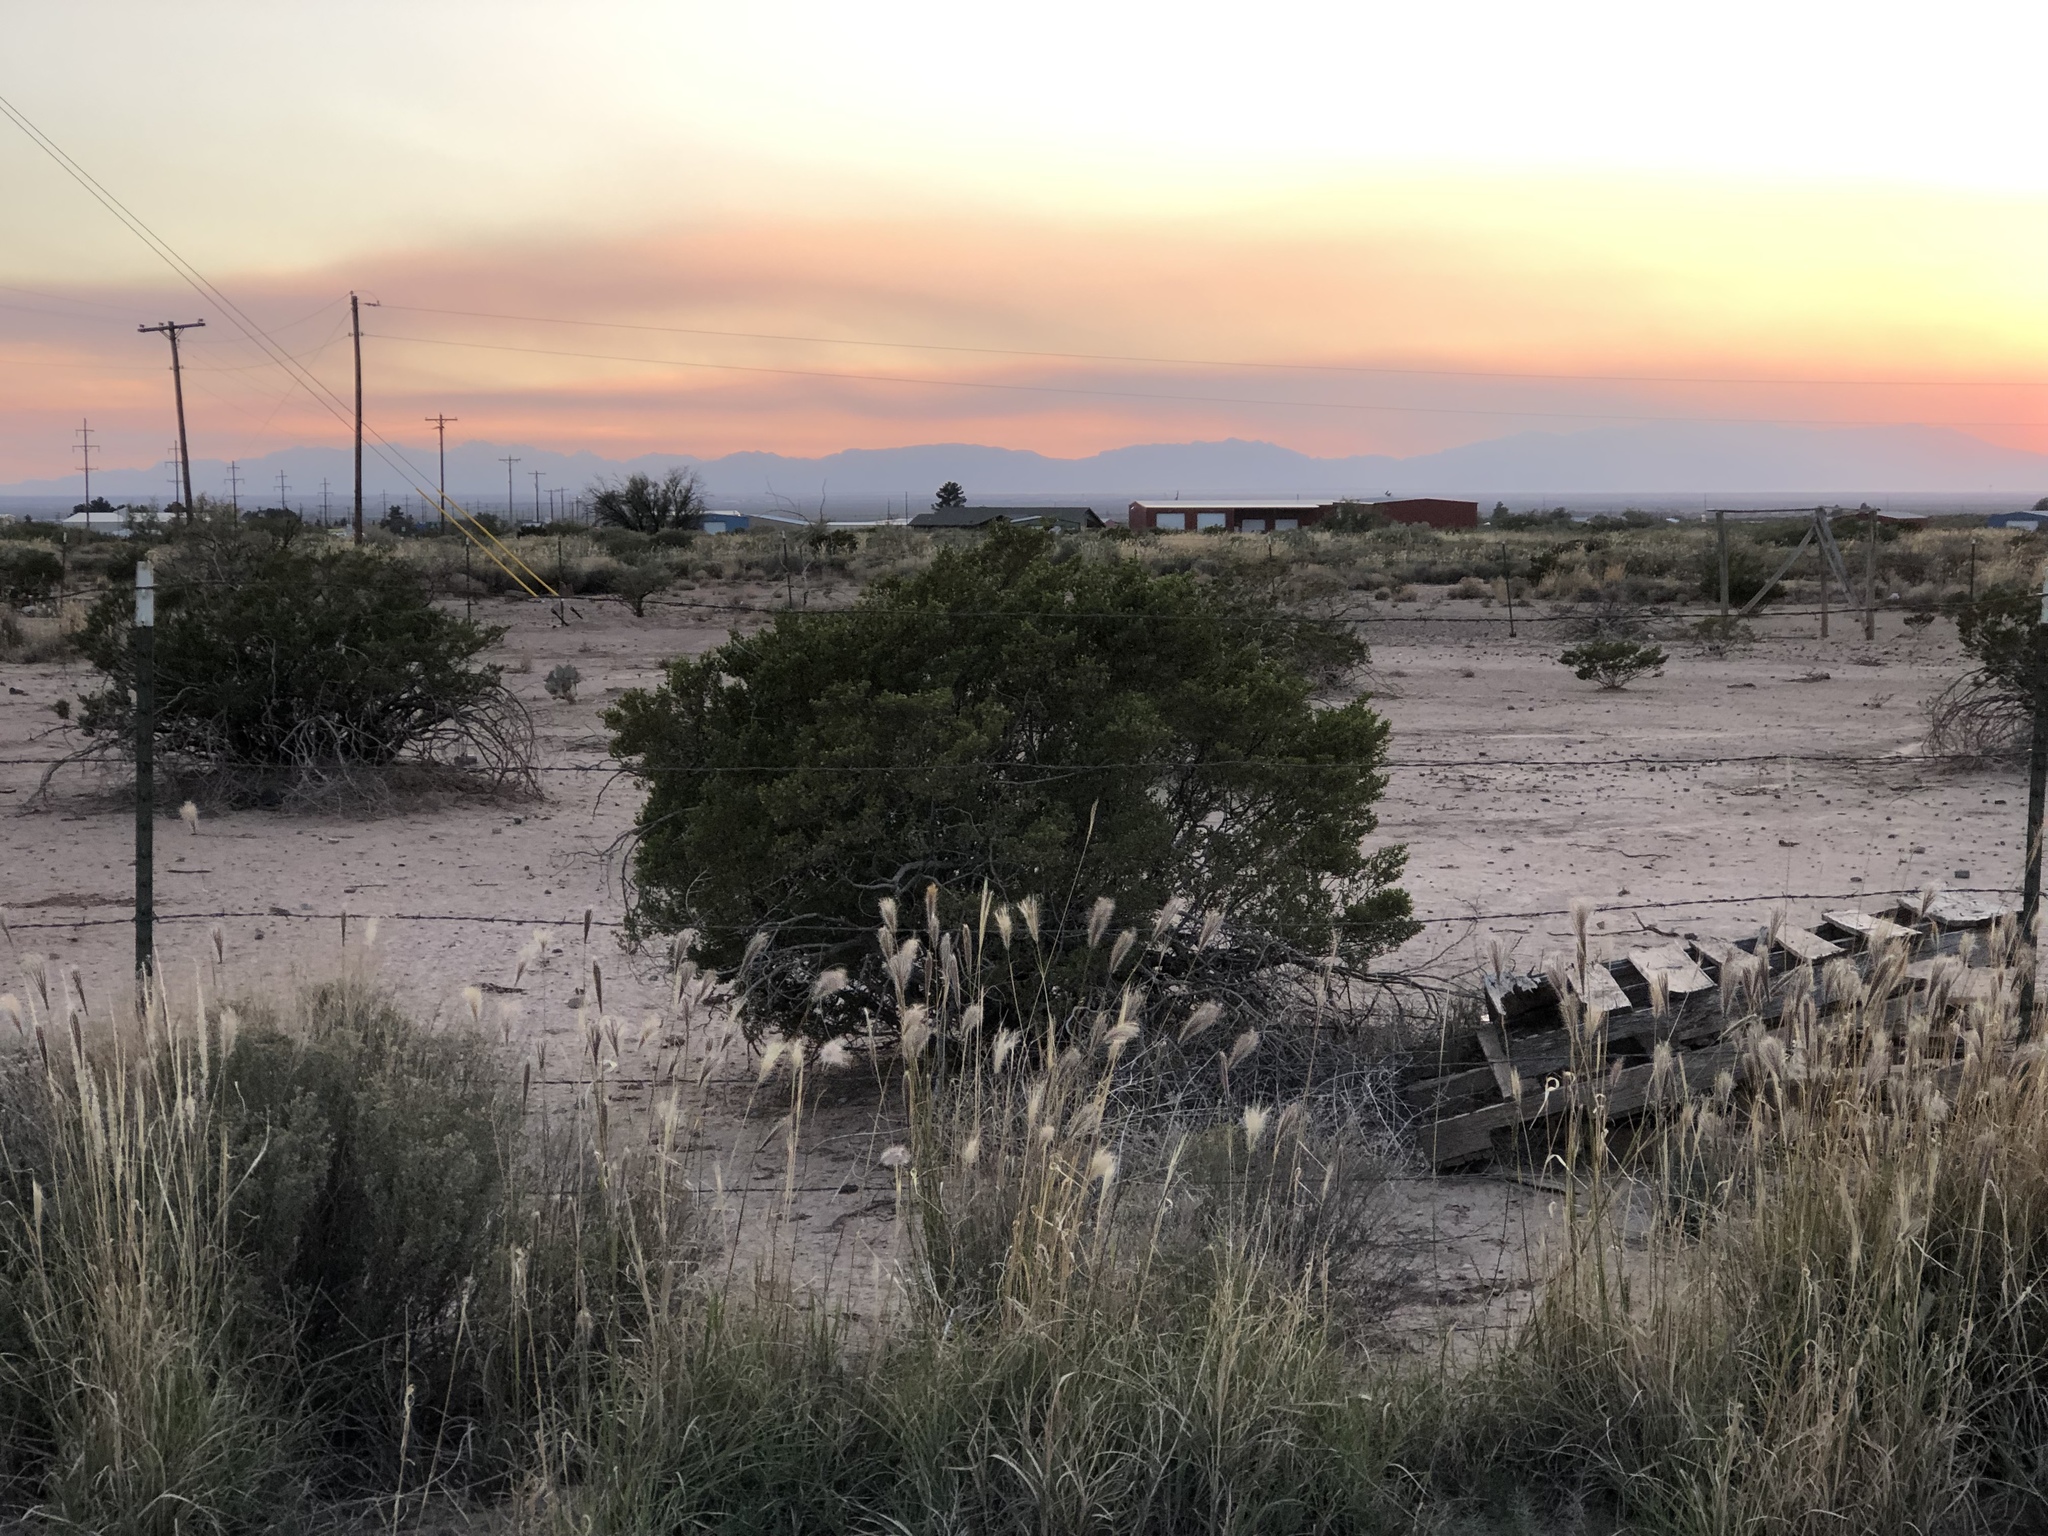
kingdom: Plantae
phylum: Tracheophyta
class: Magnoliopsida
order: Zygophyllales
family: Zygophyllaceae
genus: Larrea
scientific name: Larrea tridentata
